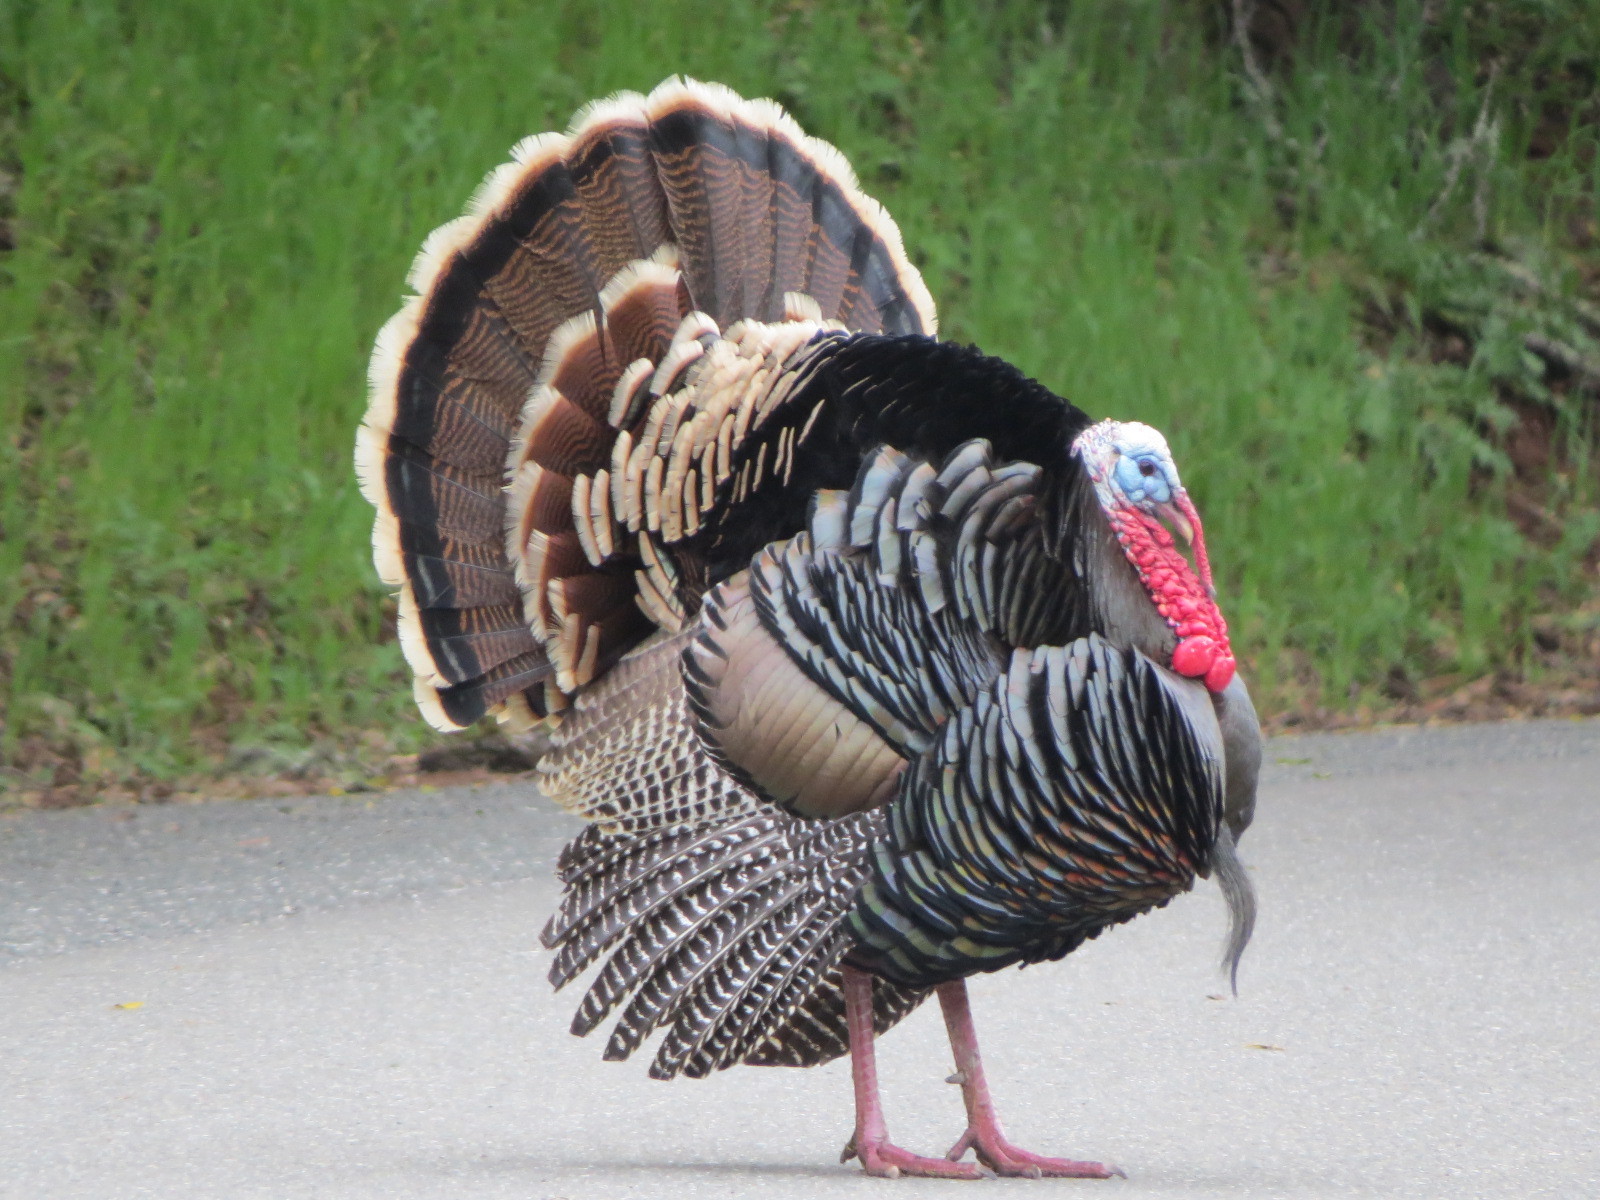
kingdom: Animalia
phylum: Chordata
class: Aves
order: Galliformes
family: Phasianidae
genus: Meleagris
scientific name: Meleagris gallopavo
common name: Wild turkey
